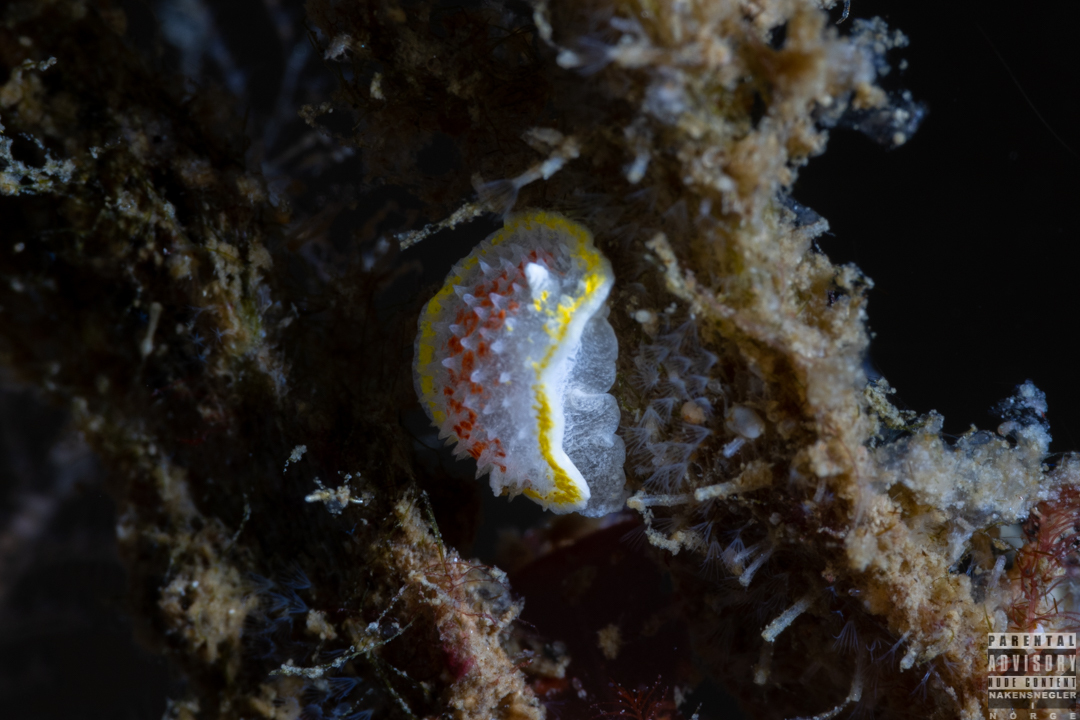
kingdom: Animalia
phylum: Mollusca
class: Gastropoda
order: Nudibranchia
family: Calycidorididae
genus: Diaphorodoris
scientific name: Diaphorodoris luteocincta
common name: Fried egg nudibranch
